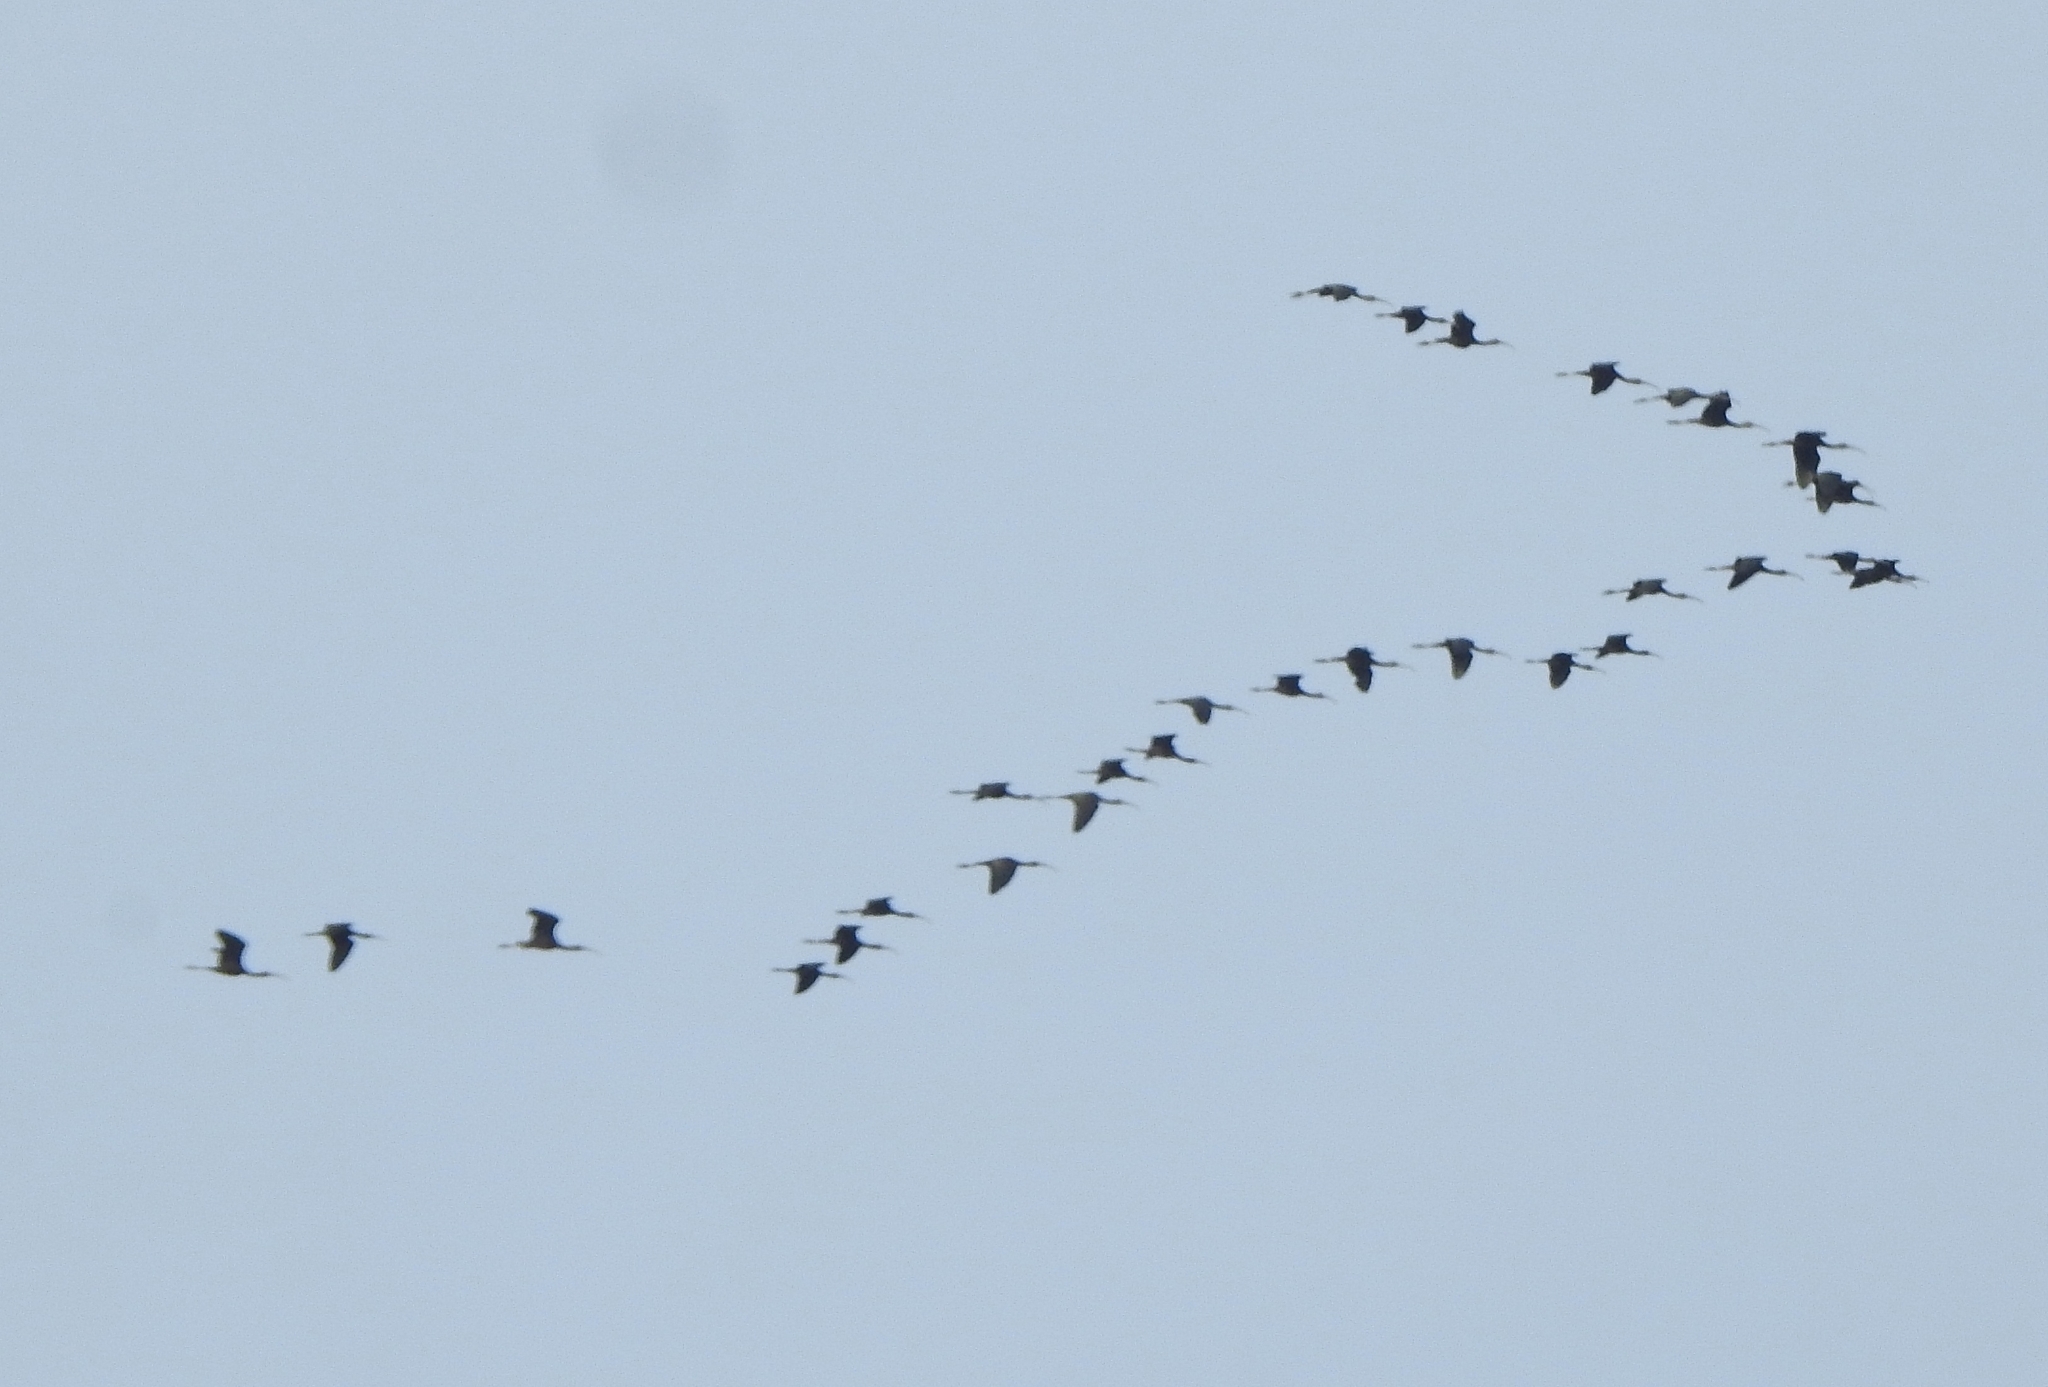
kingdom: Animalia
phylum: Chordata
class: Aves
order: Pelecaniformes
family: Threskiornithidae
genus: Plegadis
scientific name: Plegadis falcinellus
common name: Glossy ibis
